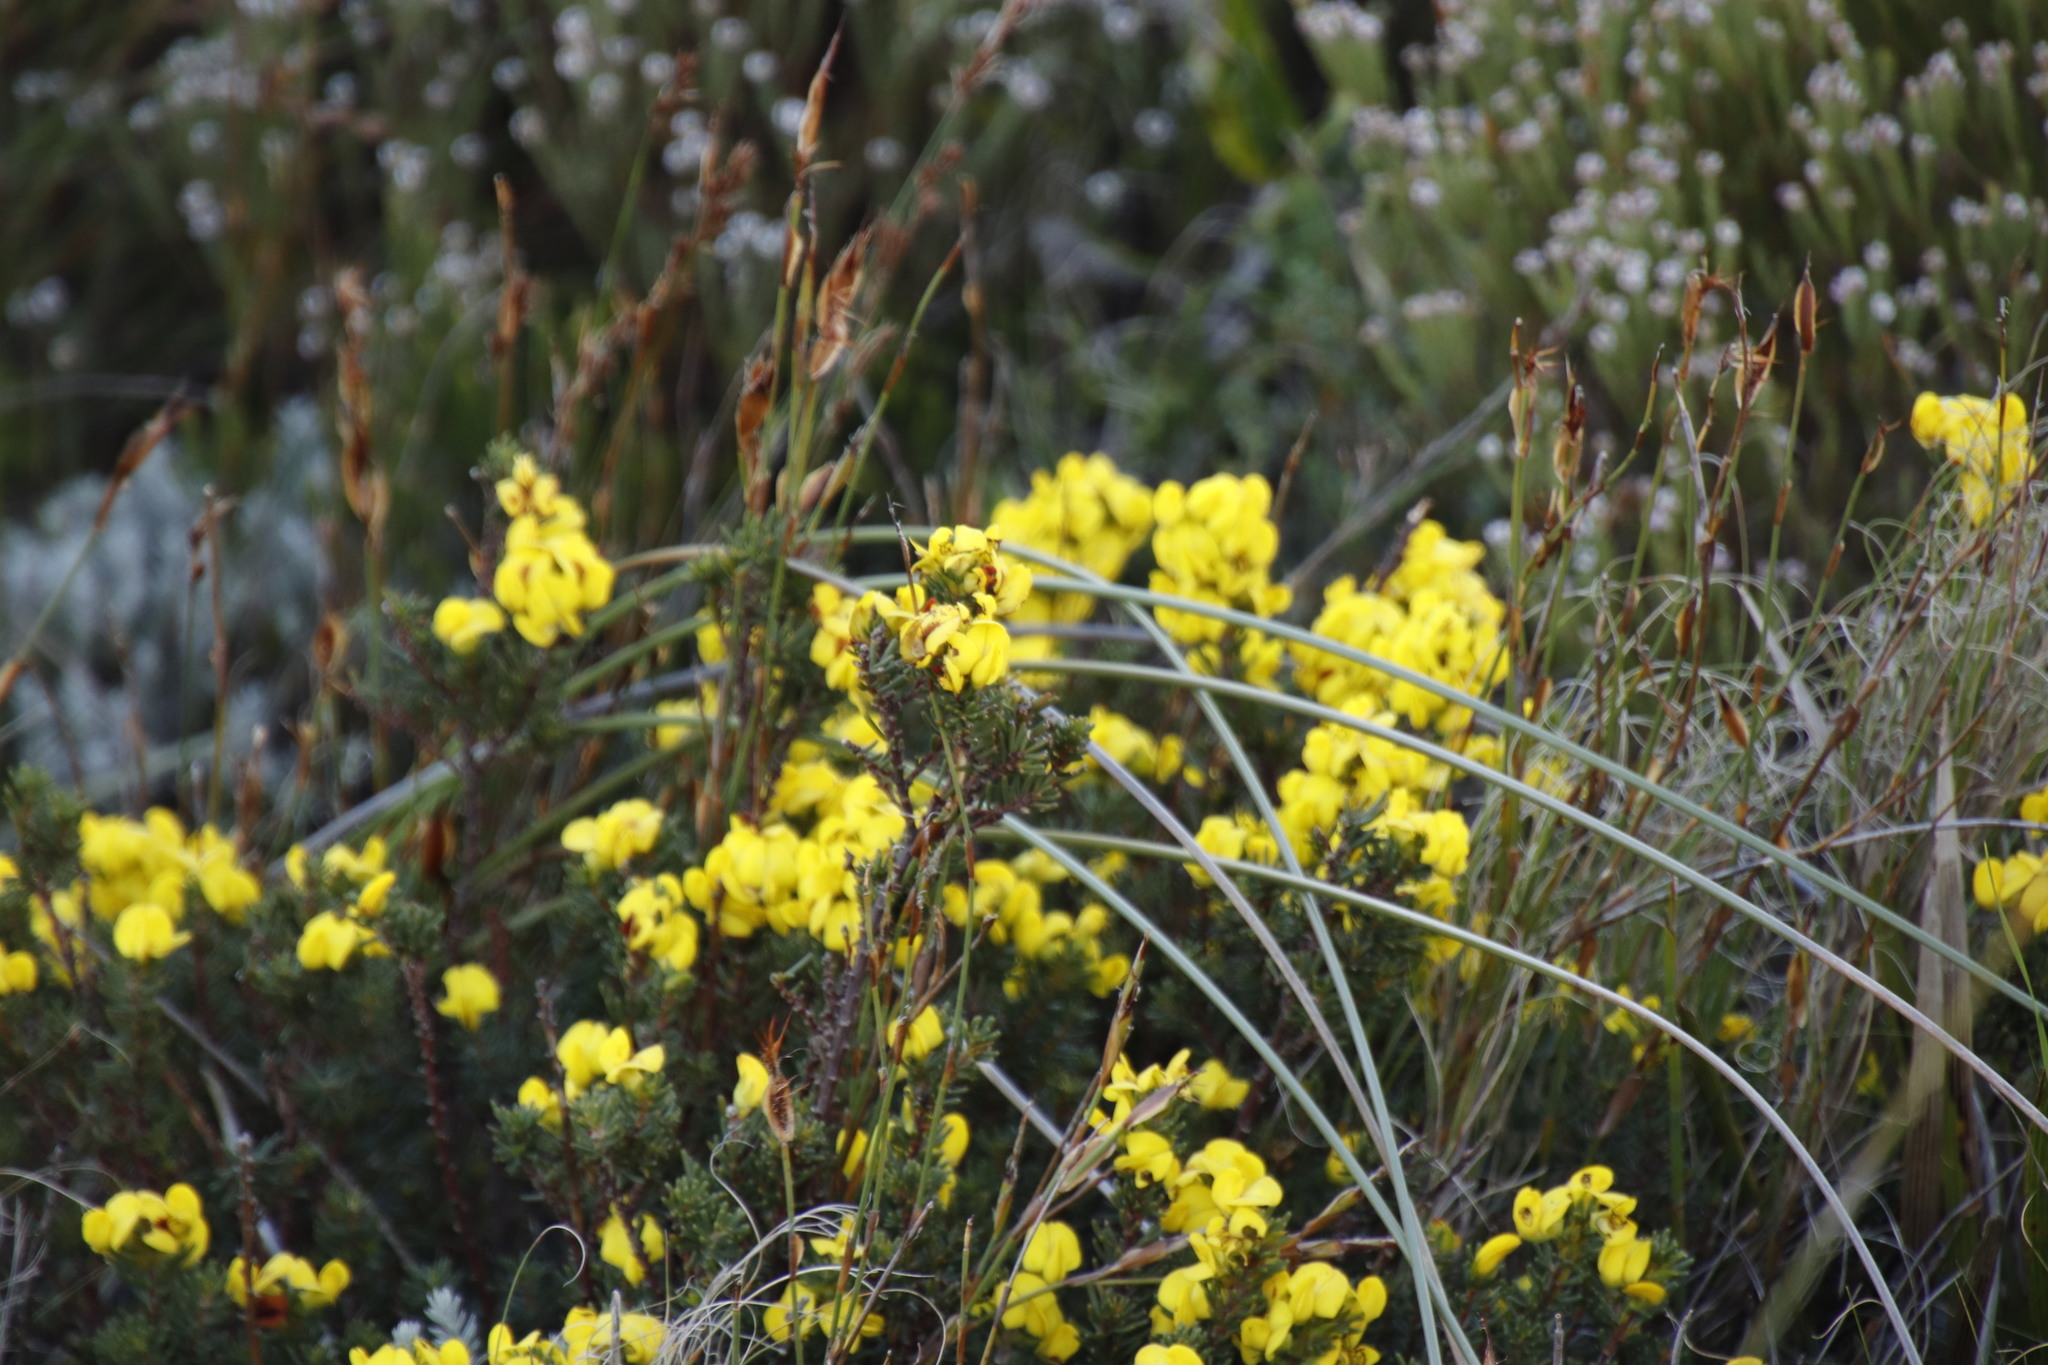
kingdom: Plantae
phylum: Tracheophyta
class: Magnoliopsida
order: Fabales
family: Fabaceae
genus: Cyclopia
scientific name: Cyclopia galioides
